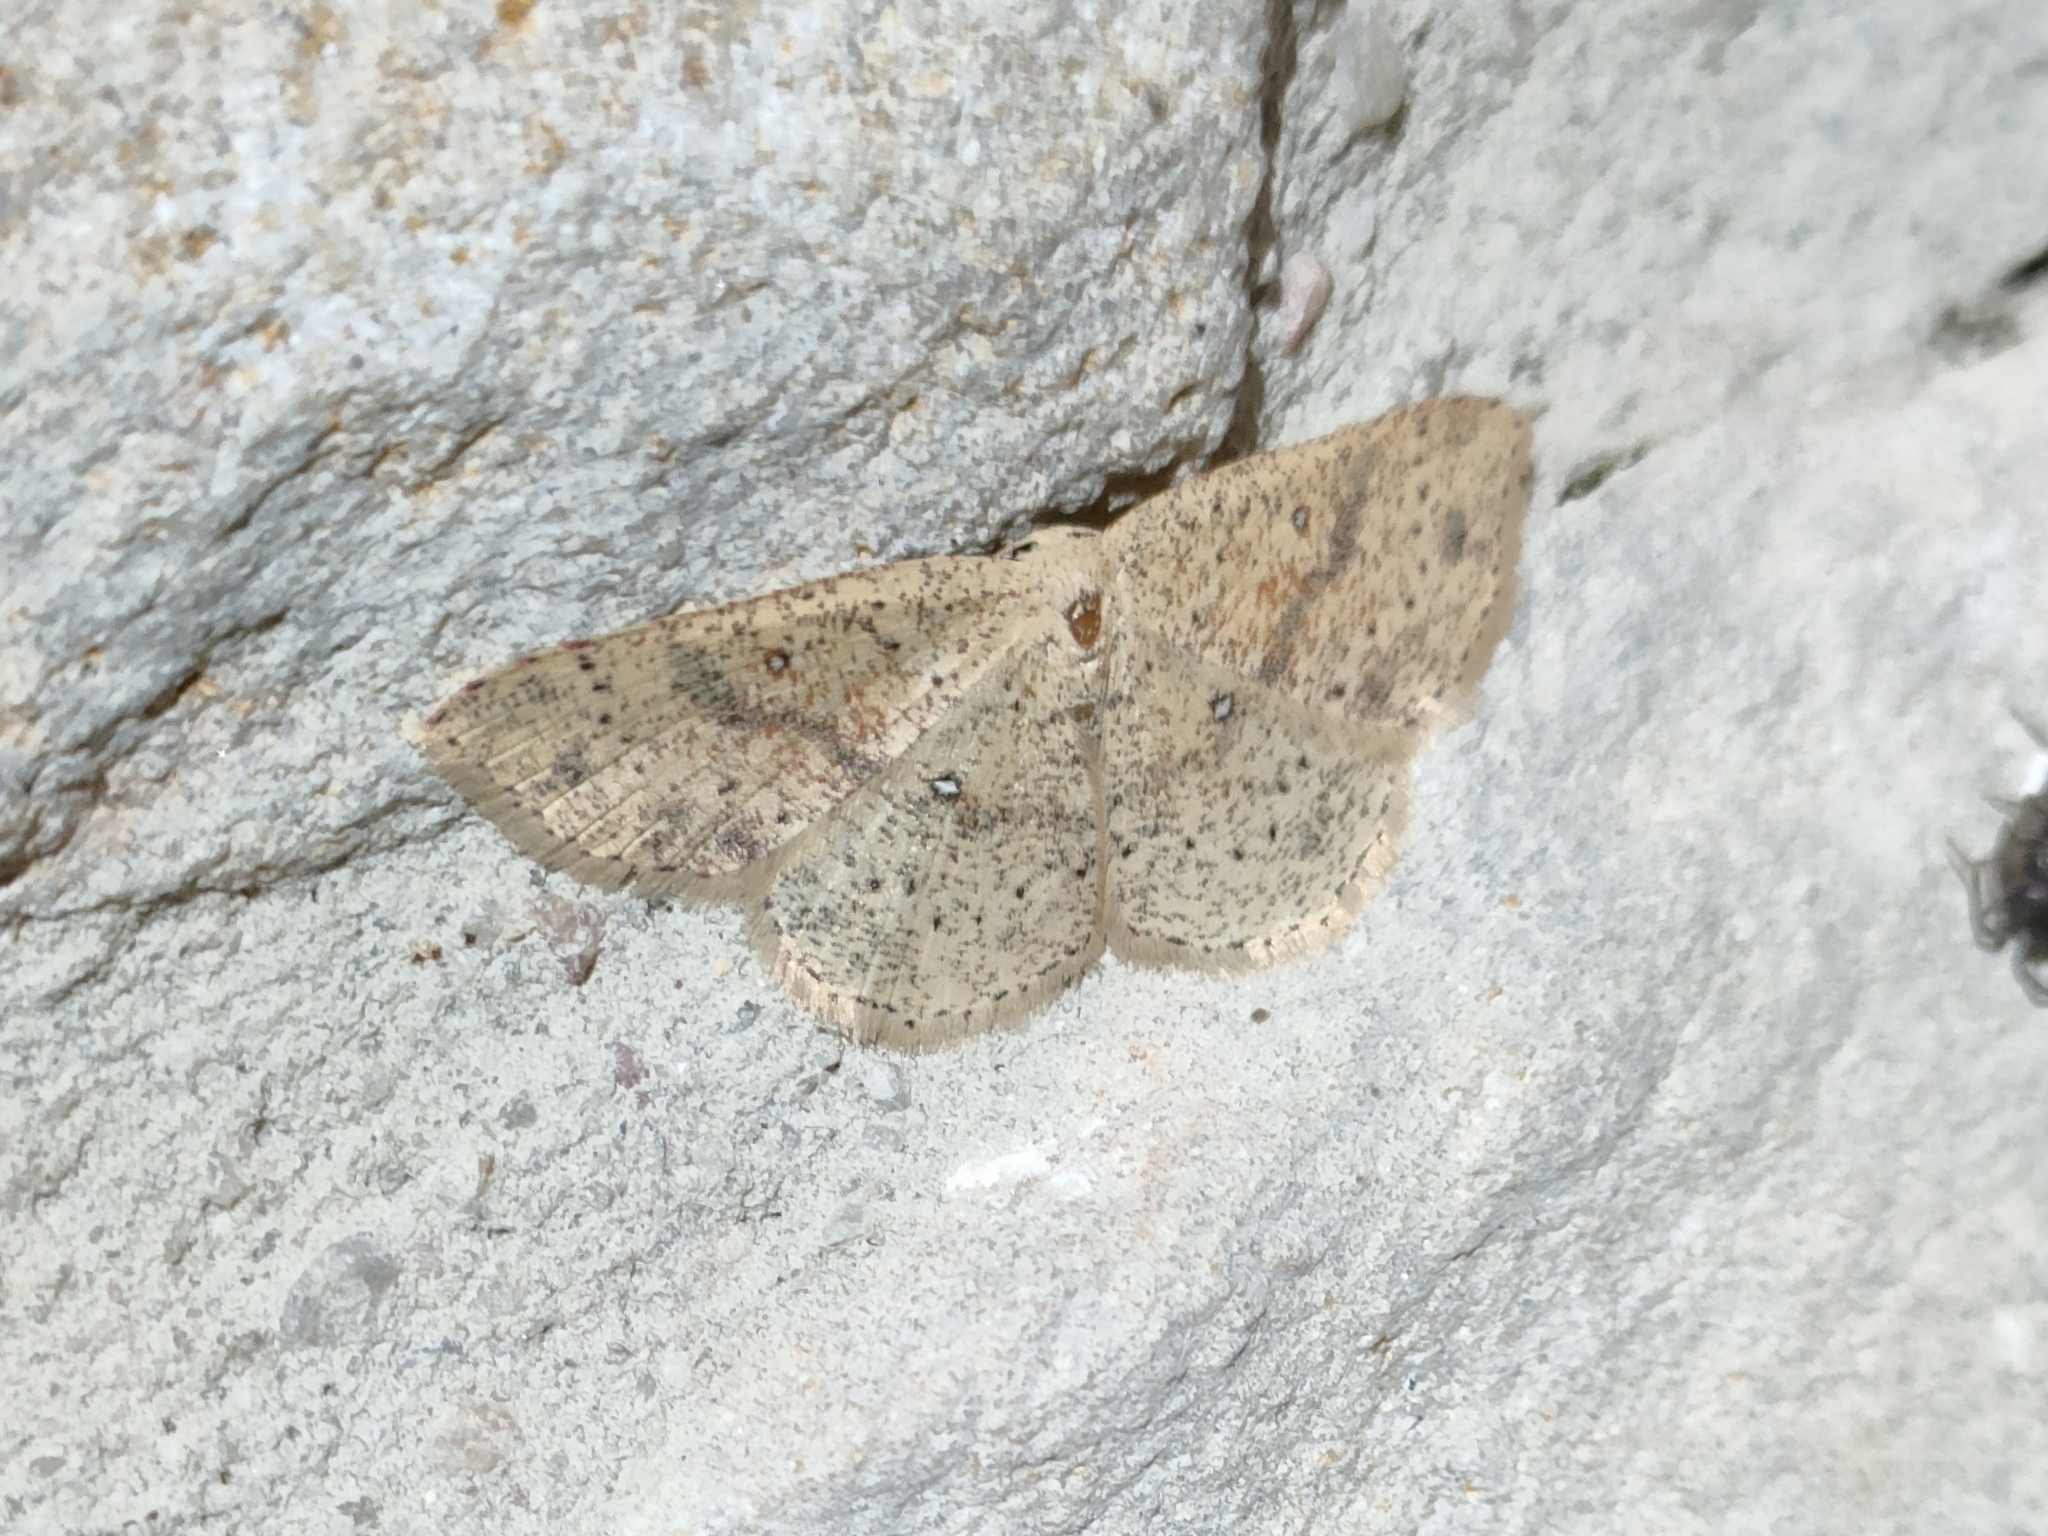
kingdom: Animalia
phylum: Arthropoda
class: Insecta
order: Lepidoptera
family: Geometridae
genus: Cyclophora
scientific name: Cyclophora porata
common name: False mocha
